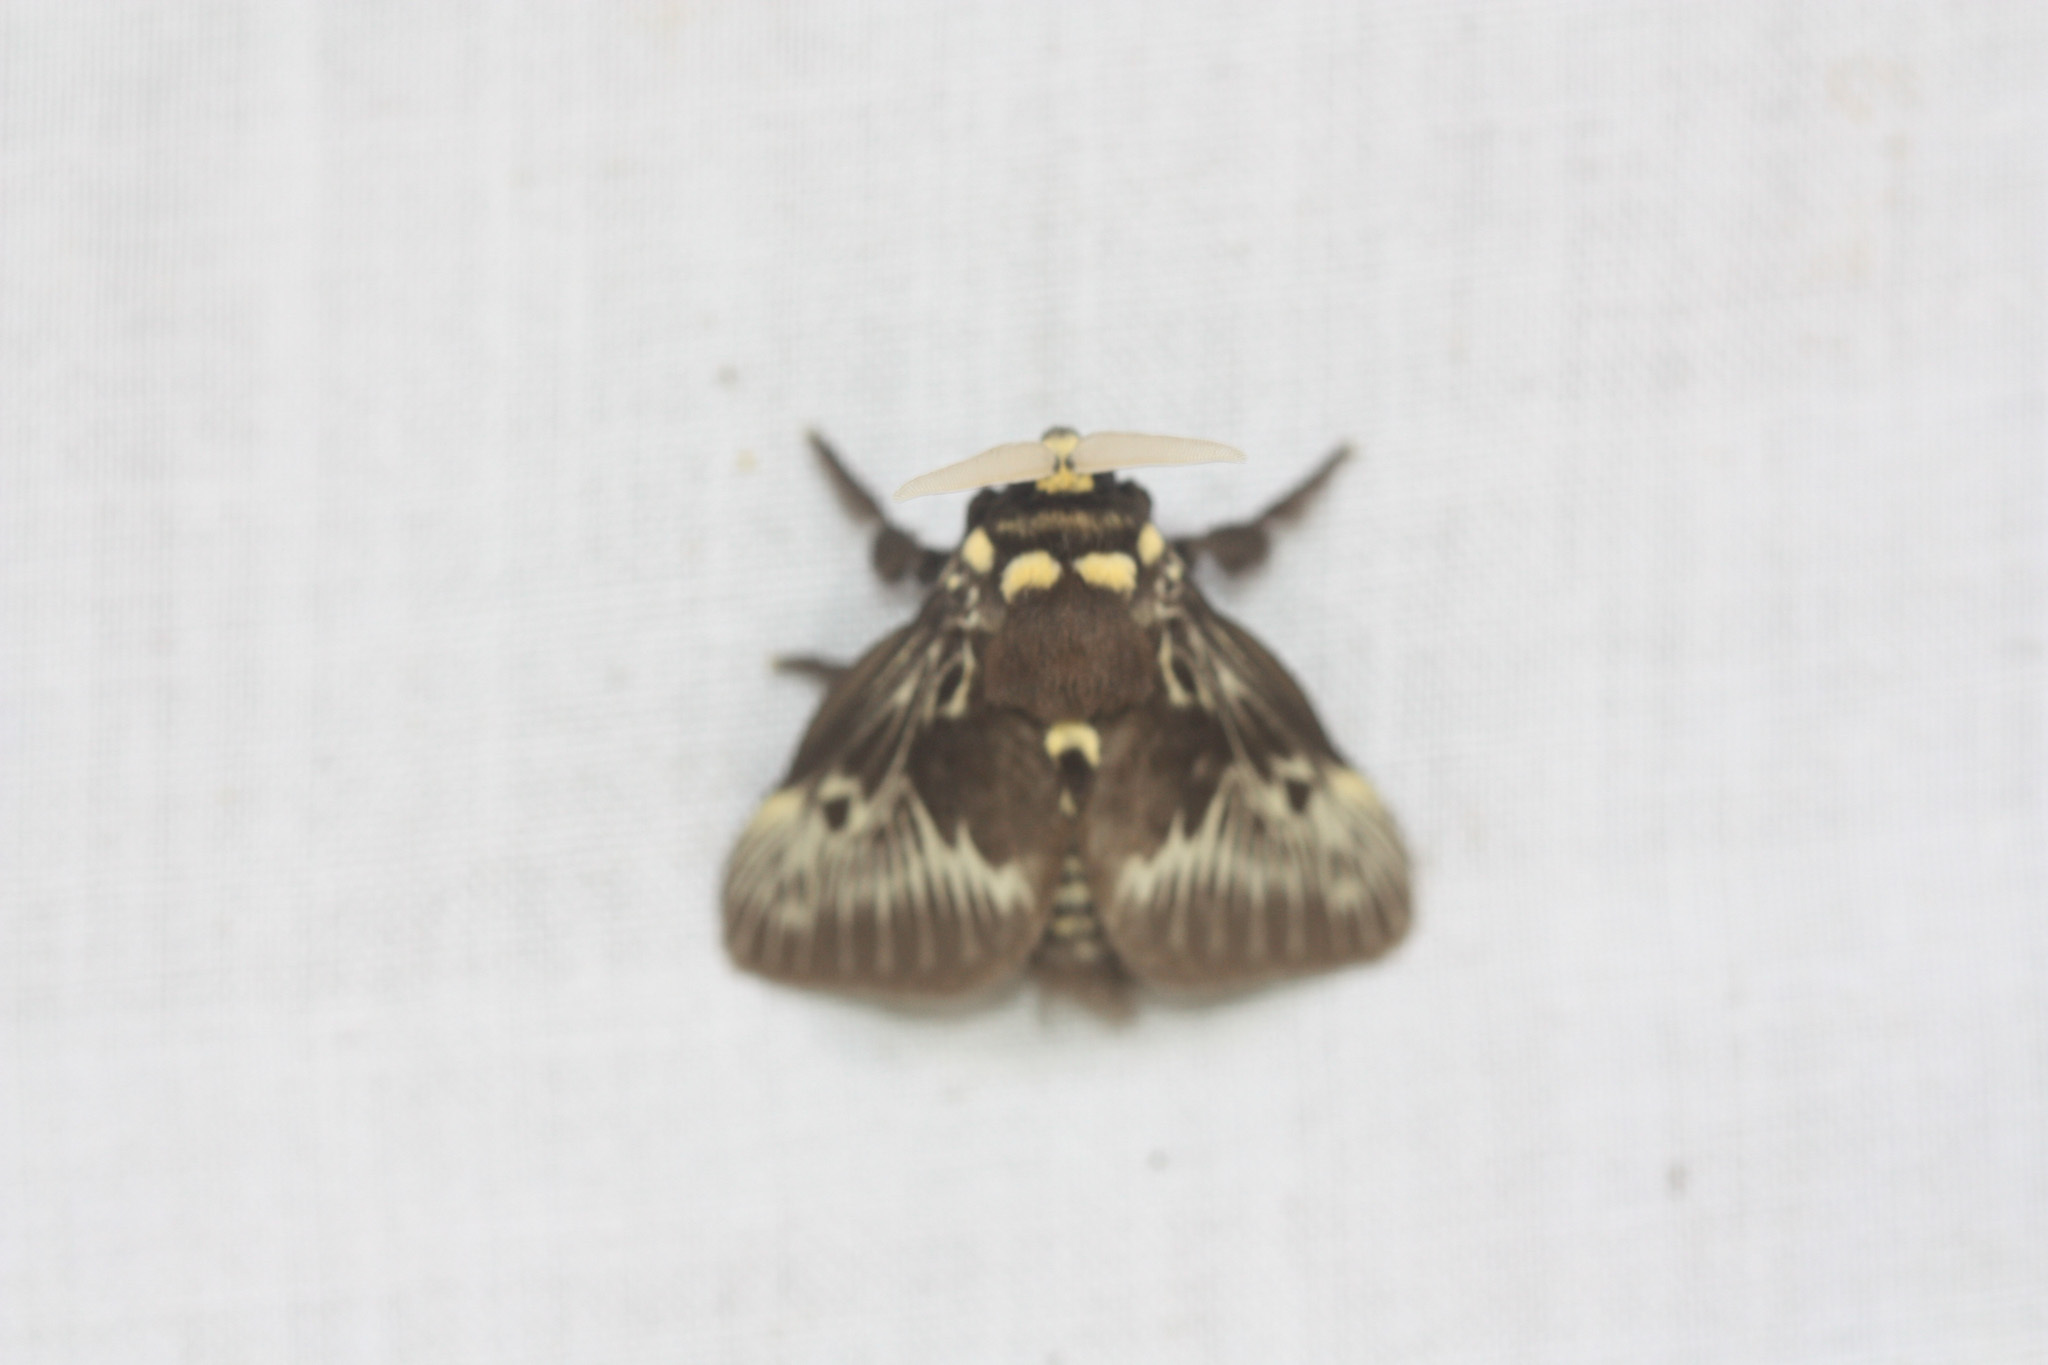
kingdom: Animalia
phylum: Arthropoda
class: Insecta
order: Lepidoptera
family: Megalopygidae
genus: Megalopyge
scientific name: Megalopyge albicollis
